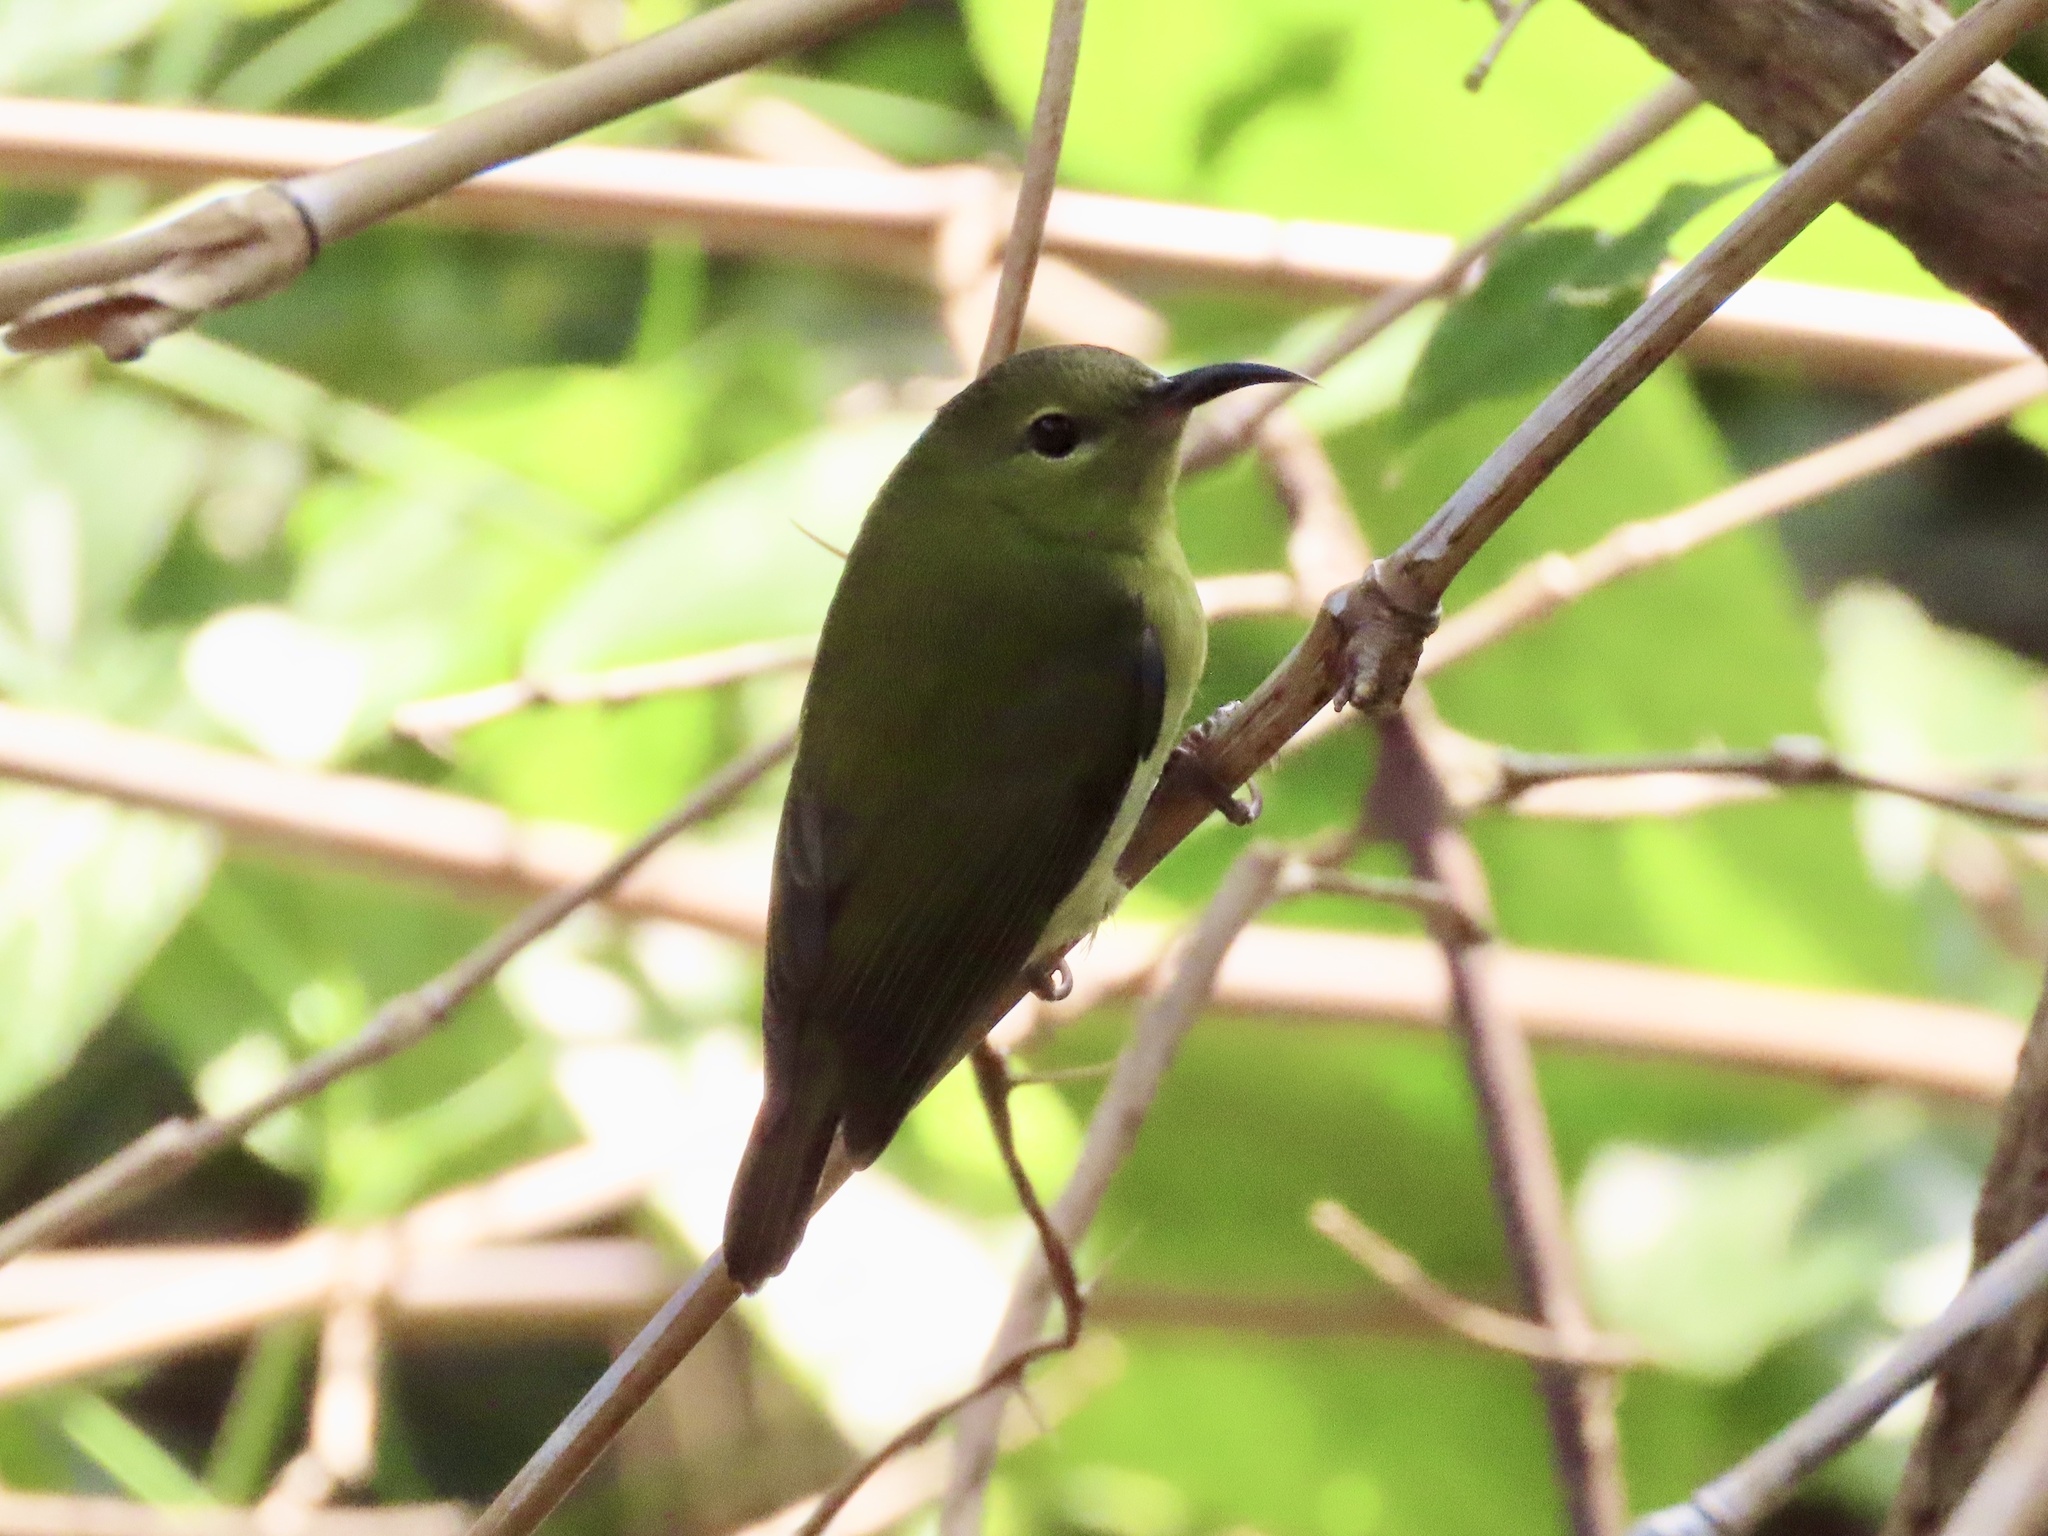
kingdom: Animalia
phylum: Chordata
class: Aves
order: Passeriformes
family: Nectariniidae
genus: Aethopyga
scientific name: Aethopyga christinae
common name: Fork-tailed sunbird
